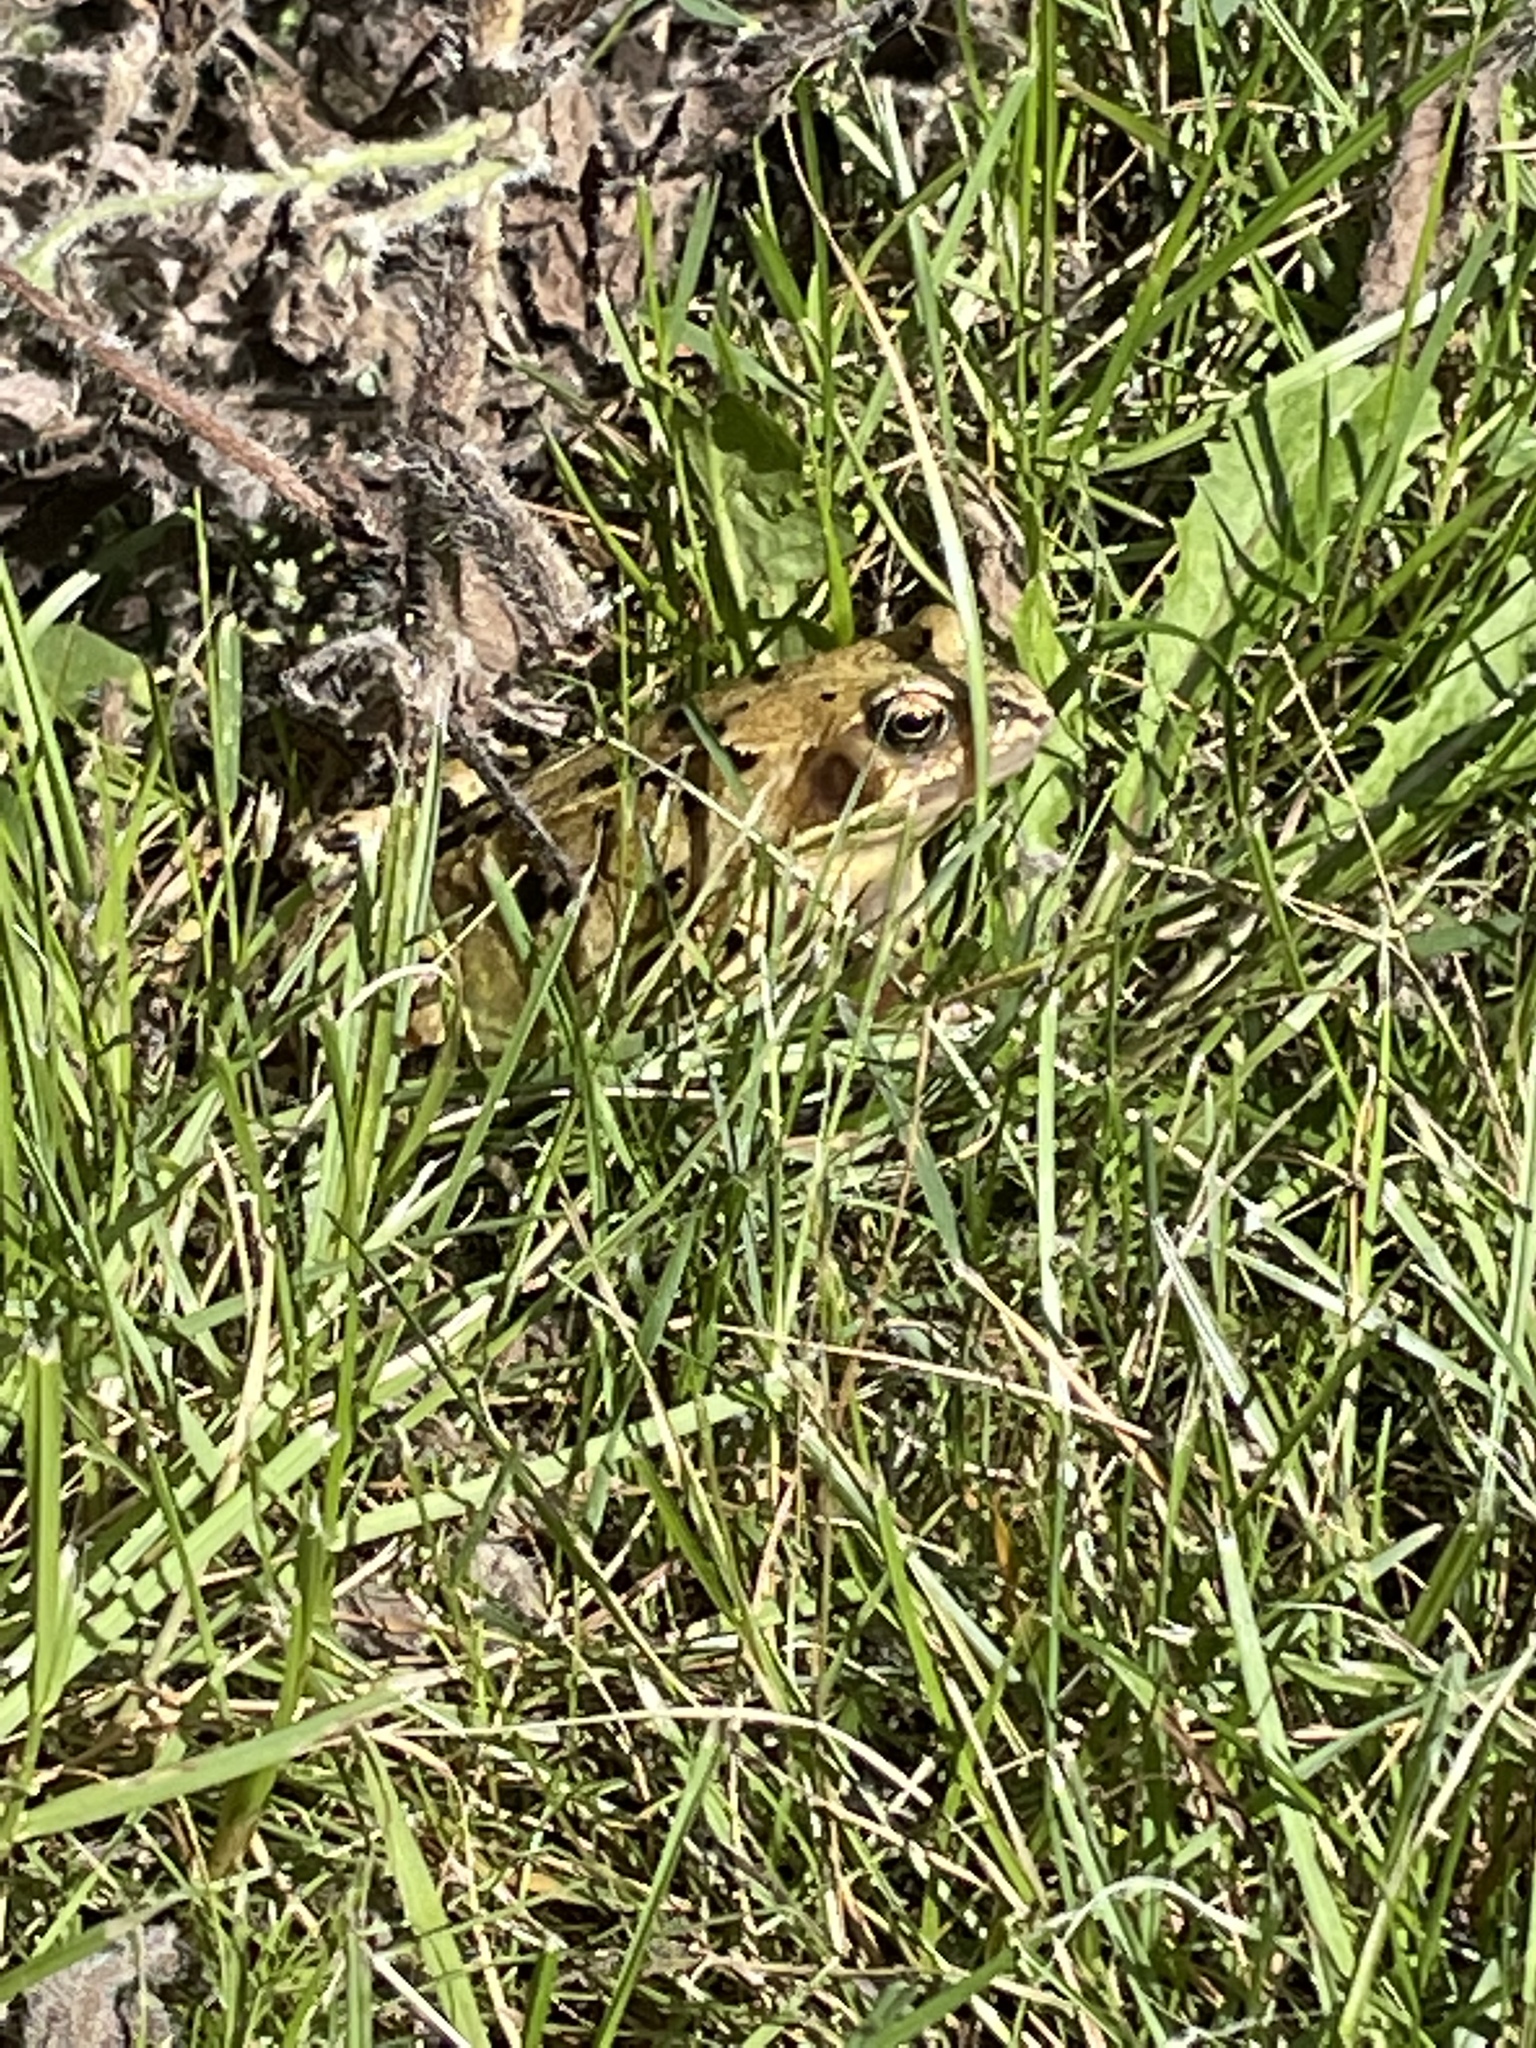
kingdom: Animalia
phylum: Chordata
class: Amphibia
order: Anura
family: Ranidae
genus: Rana
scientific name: Rana temporaria
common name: Common frog
